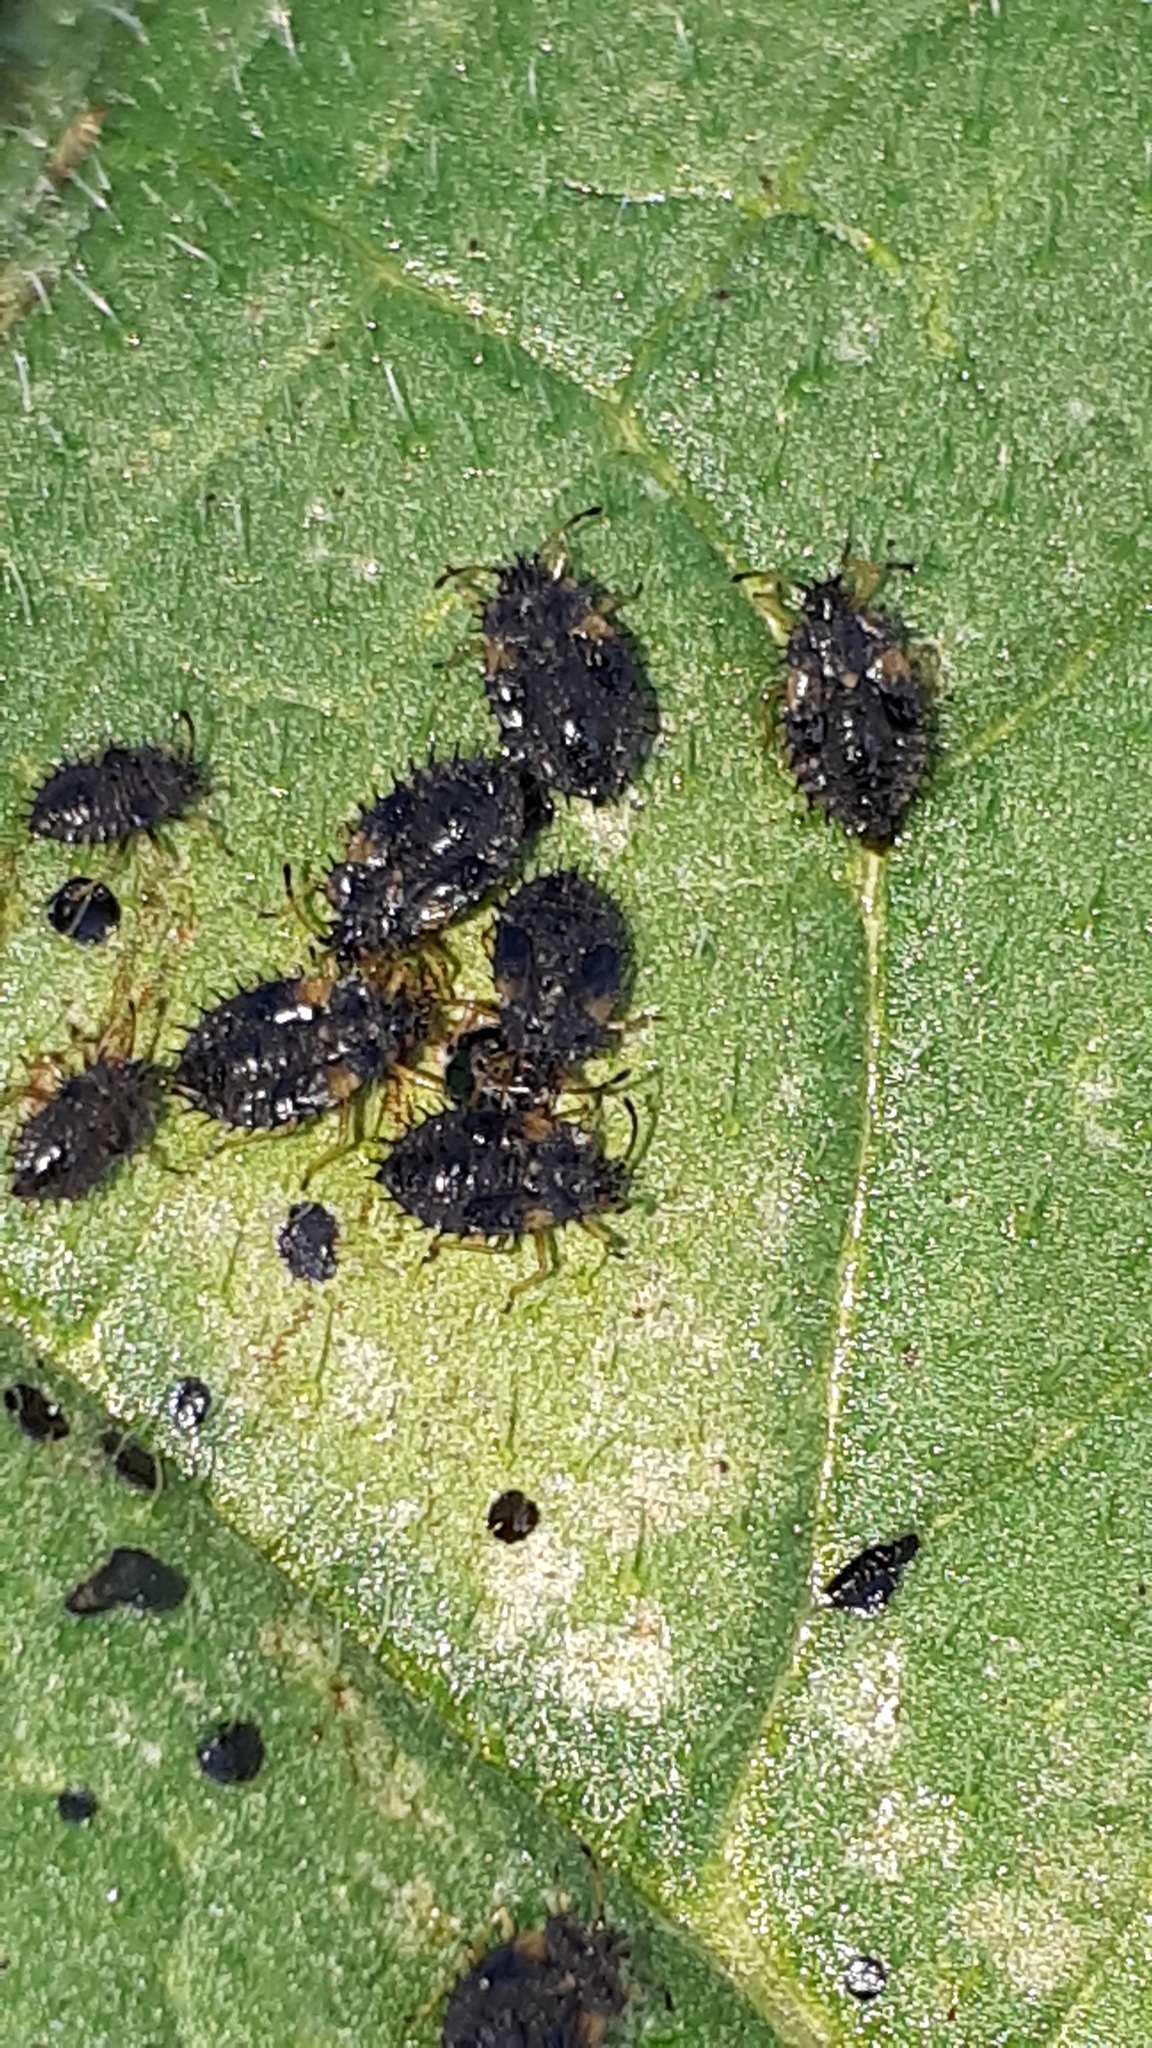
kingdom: Animalia
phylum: Arthropoda
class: Insecta
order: Hemiptera
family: Tingidae
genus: Dictyla
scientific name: Dictyla humuli
